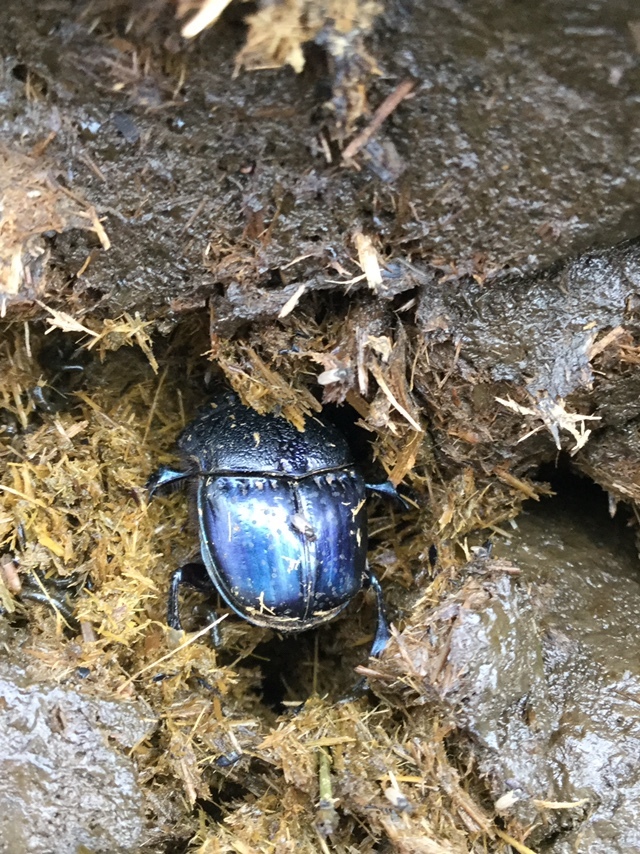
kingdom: Animalia
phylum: Arthropoda
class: Insecta
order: Coleoptera
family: Scarabaeidae
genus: Phanaeus
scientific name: Phanaeus quadridens
